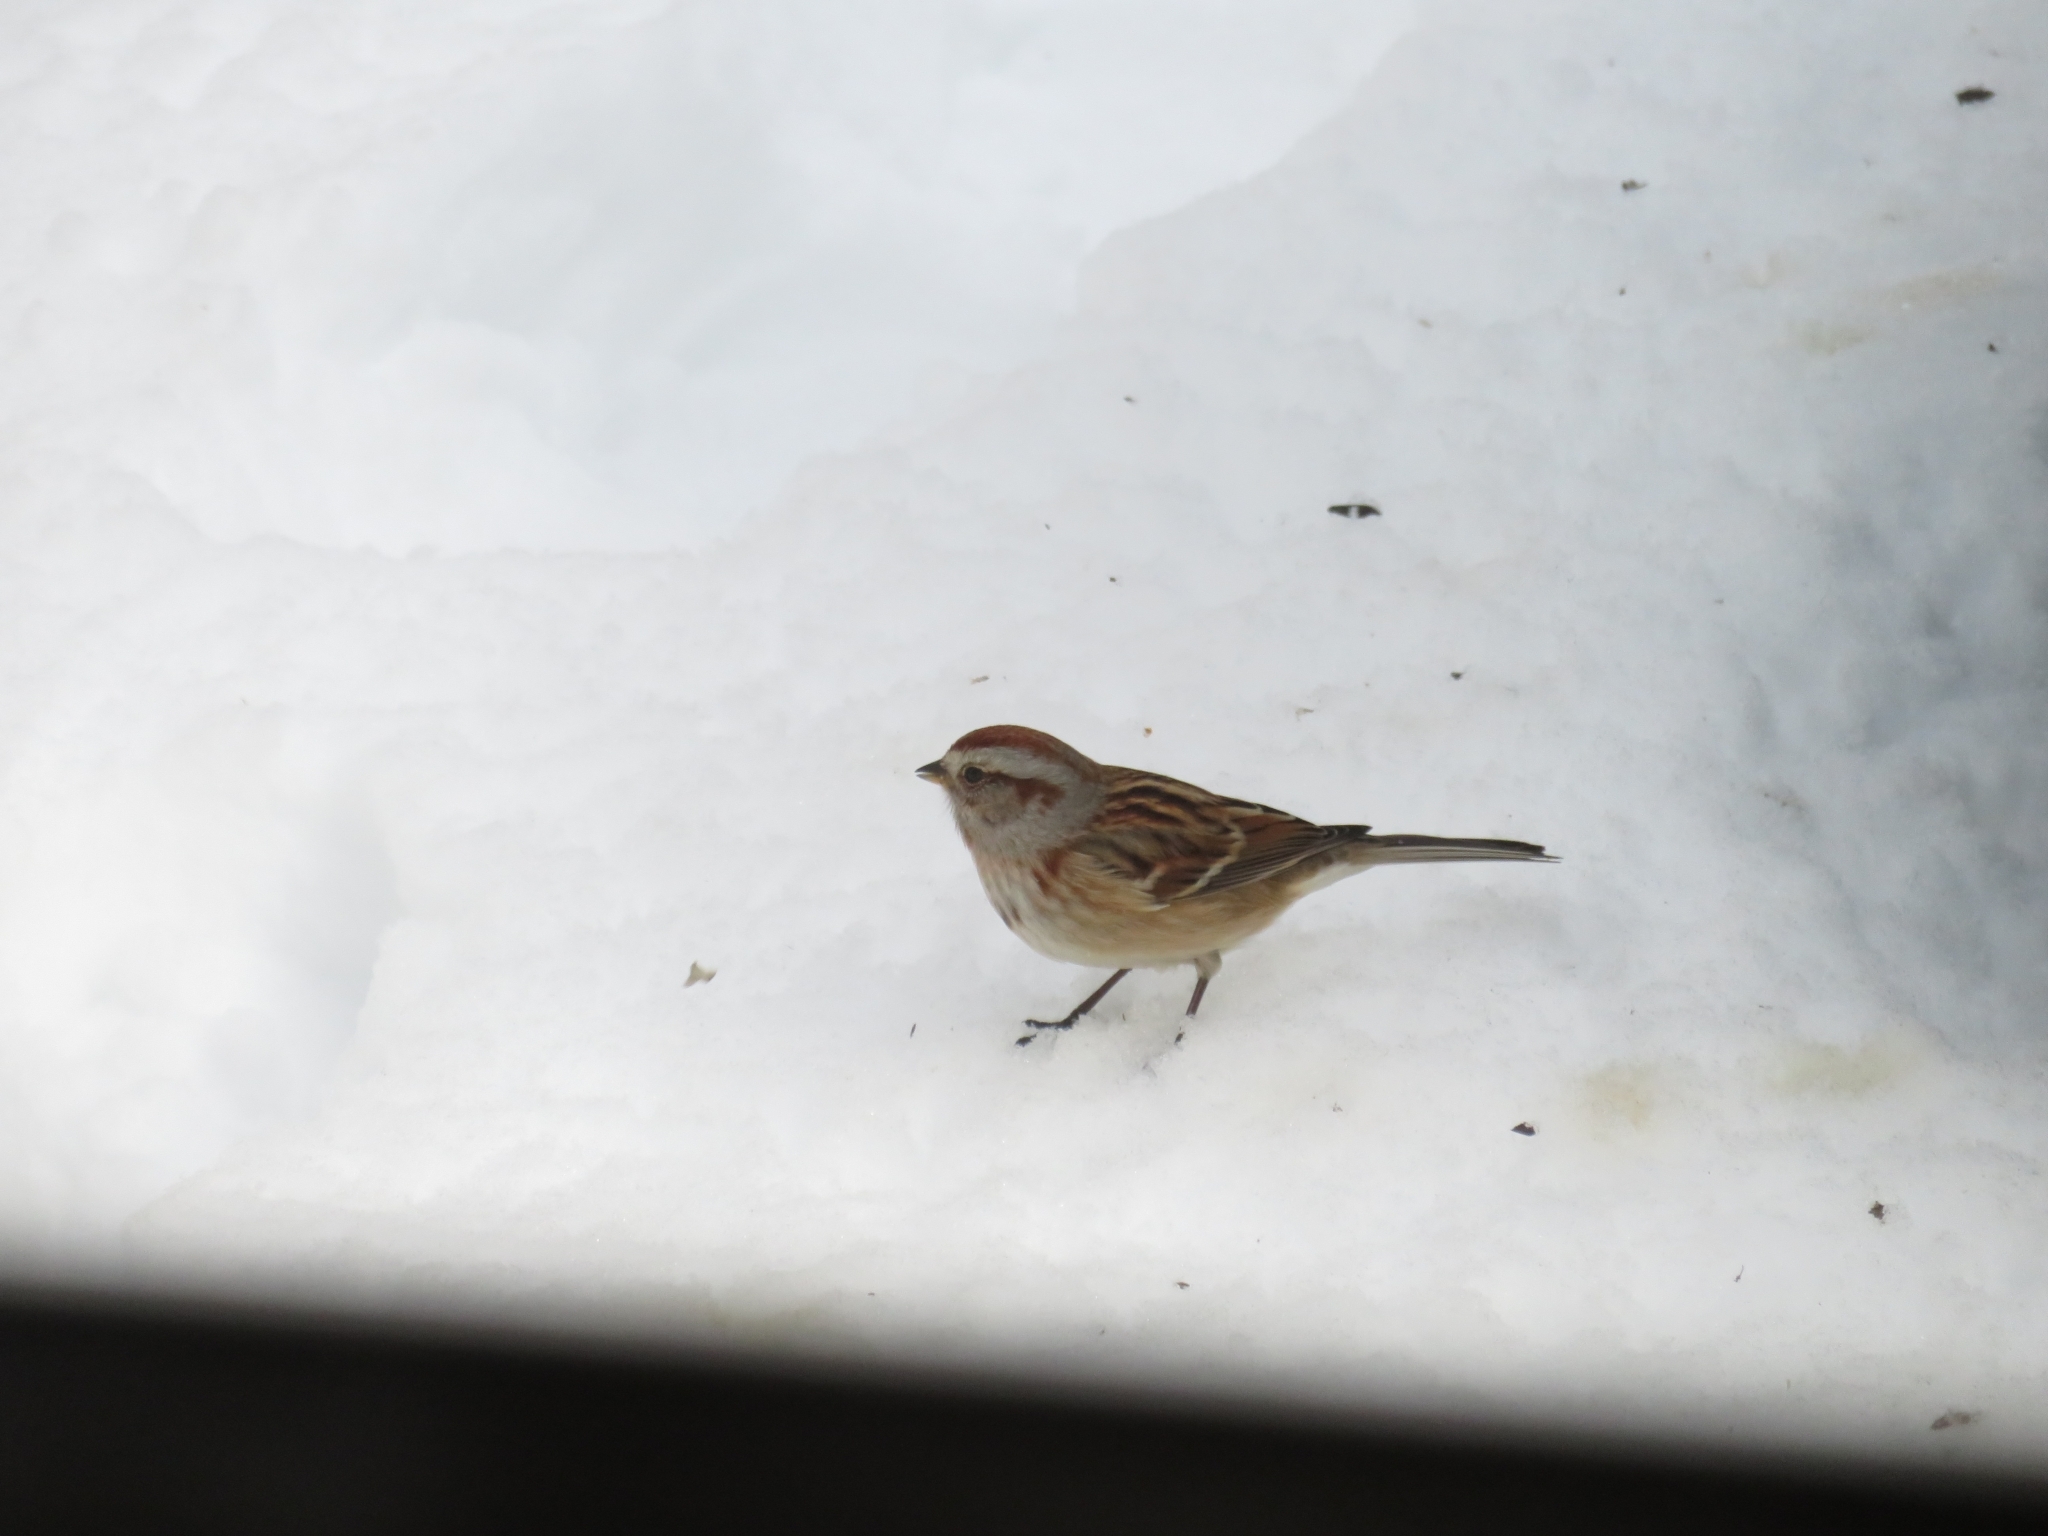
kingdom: Animalia
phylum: Chordata
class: Aves
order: Passeriformes
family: Passerellidae
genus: Spizelloides
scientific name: Spizelloides arborea
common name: American tree sparrow
